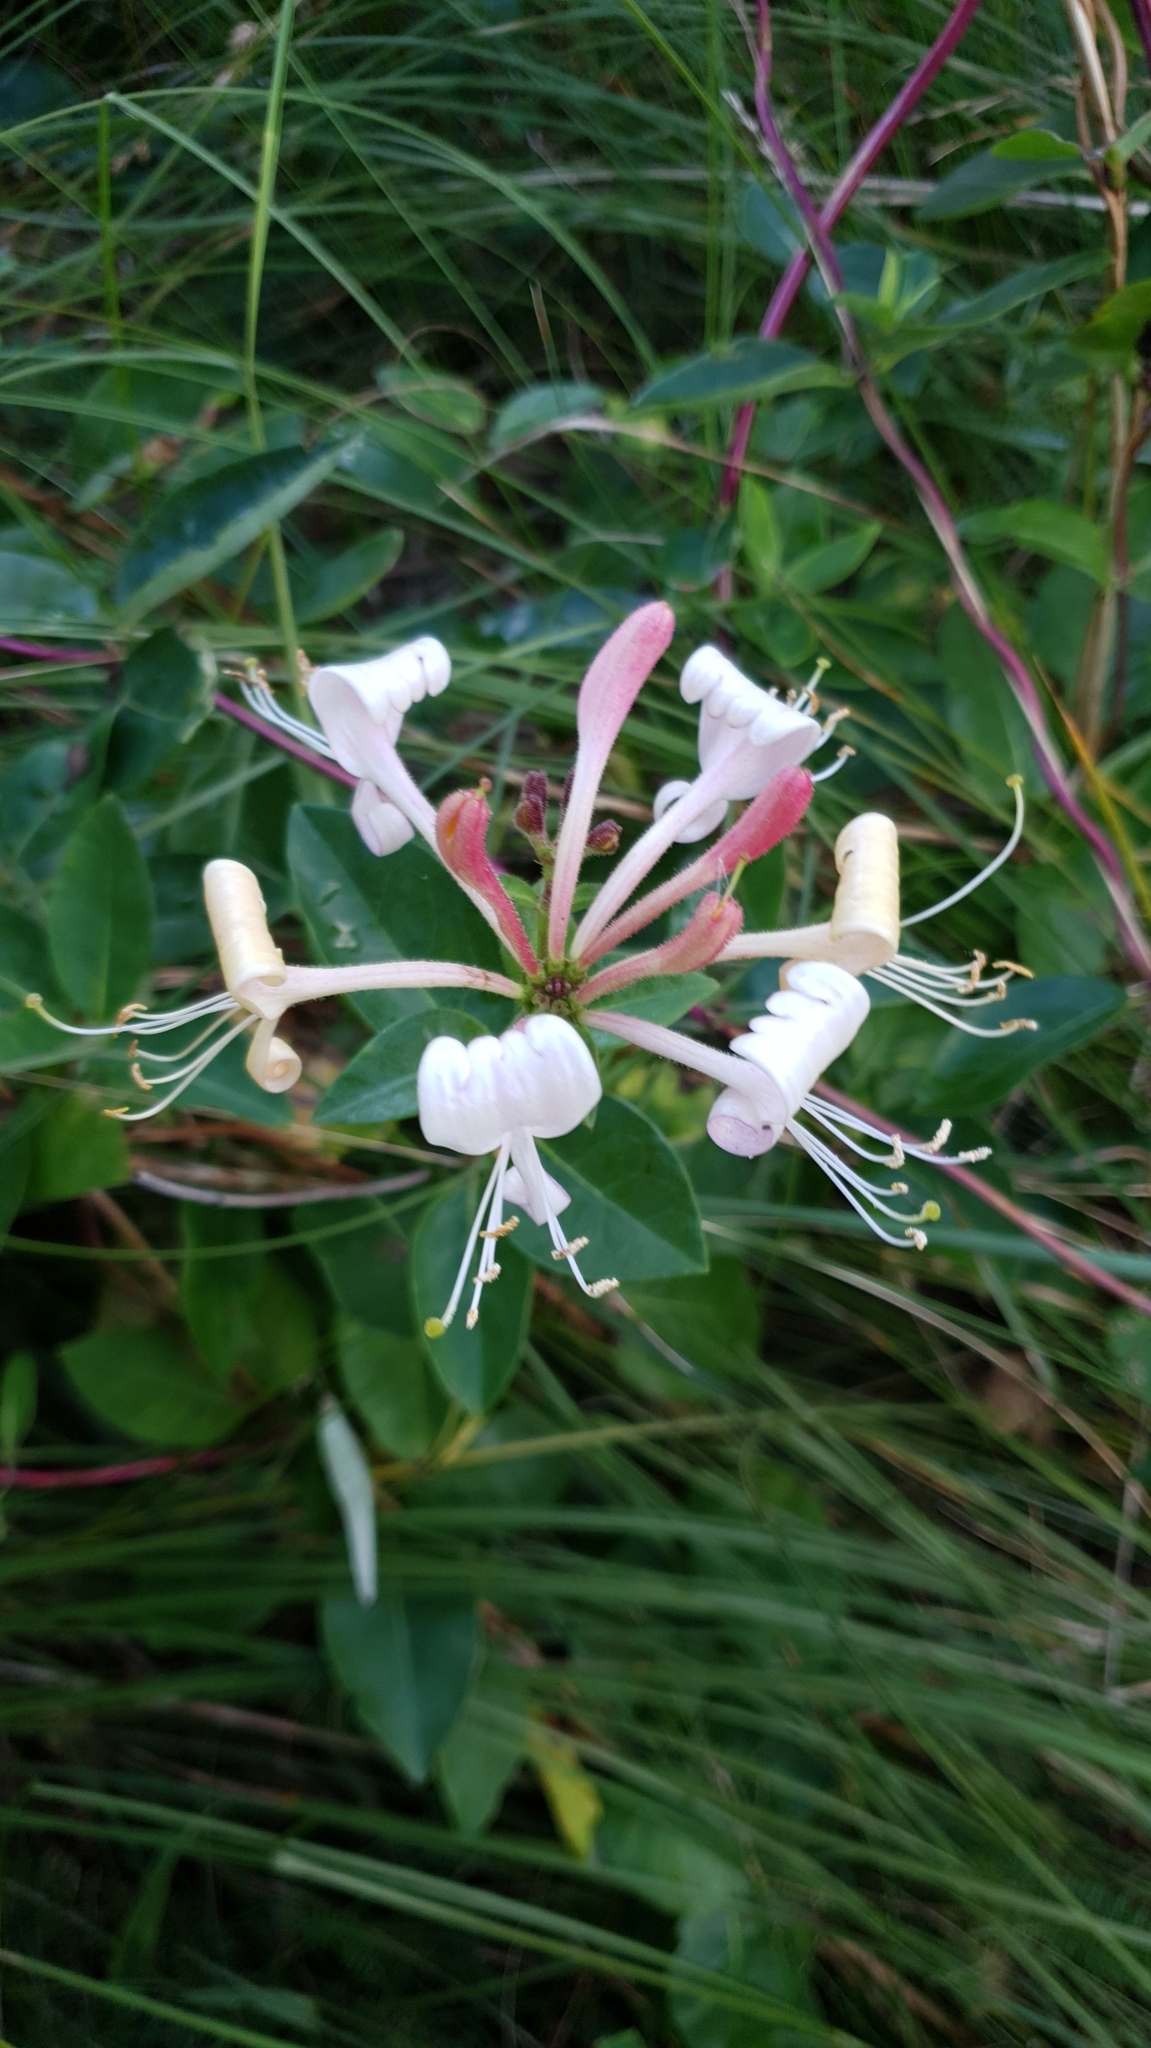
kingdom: Plantae
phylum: Tracheophyta
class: Magnoliopsida
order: Dipsacales
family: Caprifoliaceae
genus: Lonicera
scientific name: Lonicera periclymenum
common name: European honeysuckle
